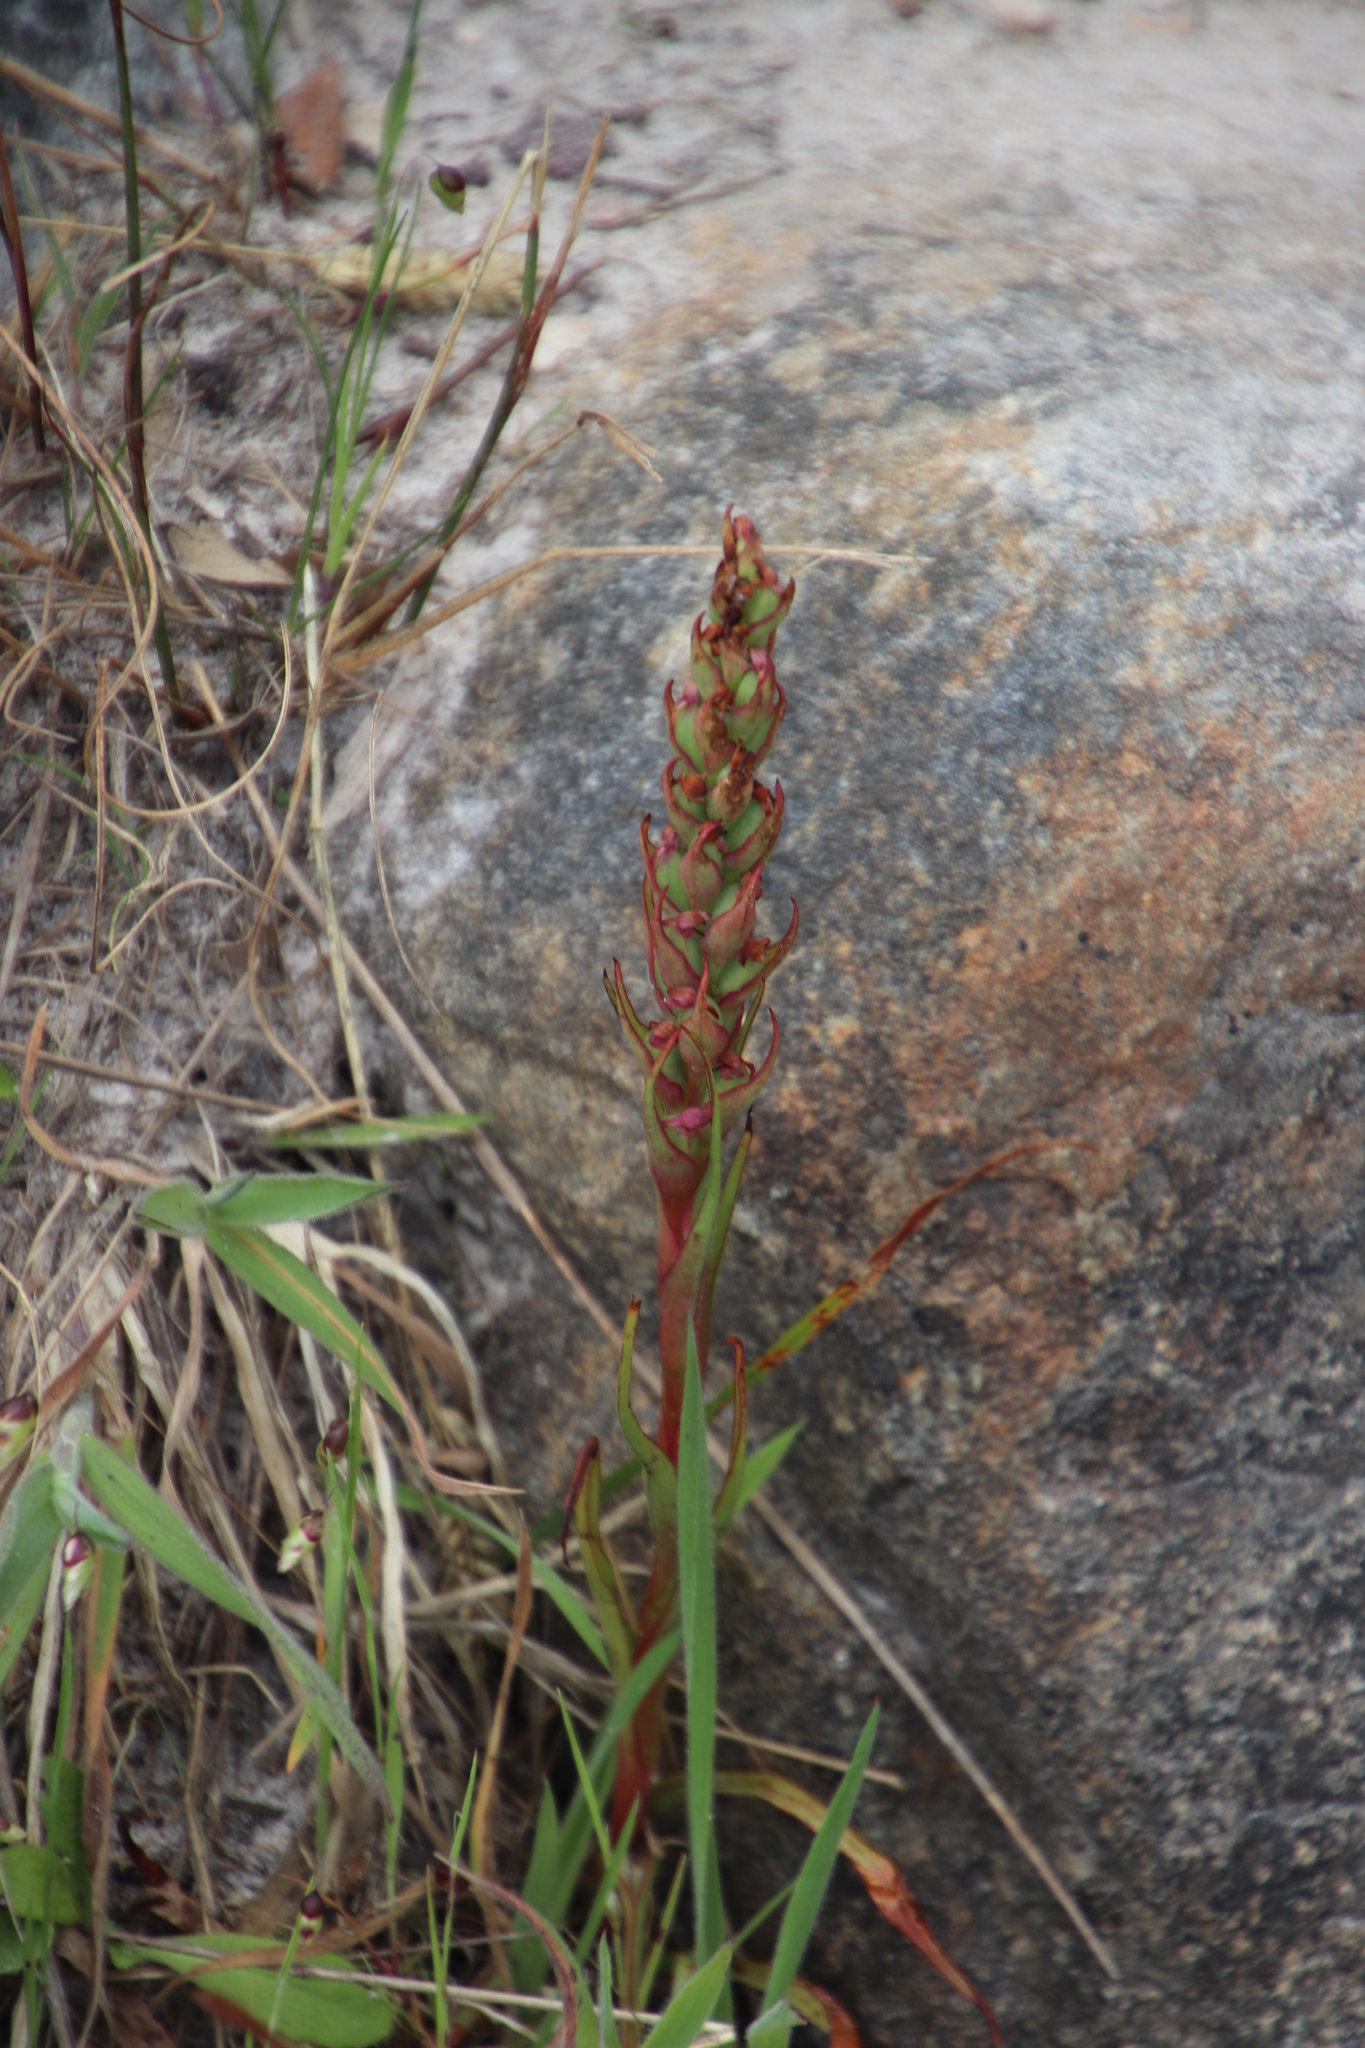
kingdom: Plantae
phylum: Tracheophyta
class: Liliopsida
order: Asparagales
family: Orchidaceae
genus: Disa
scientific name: Disa bracteata
